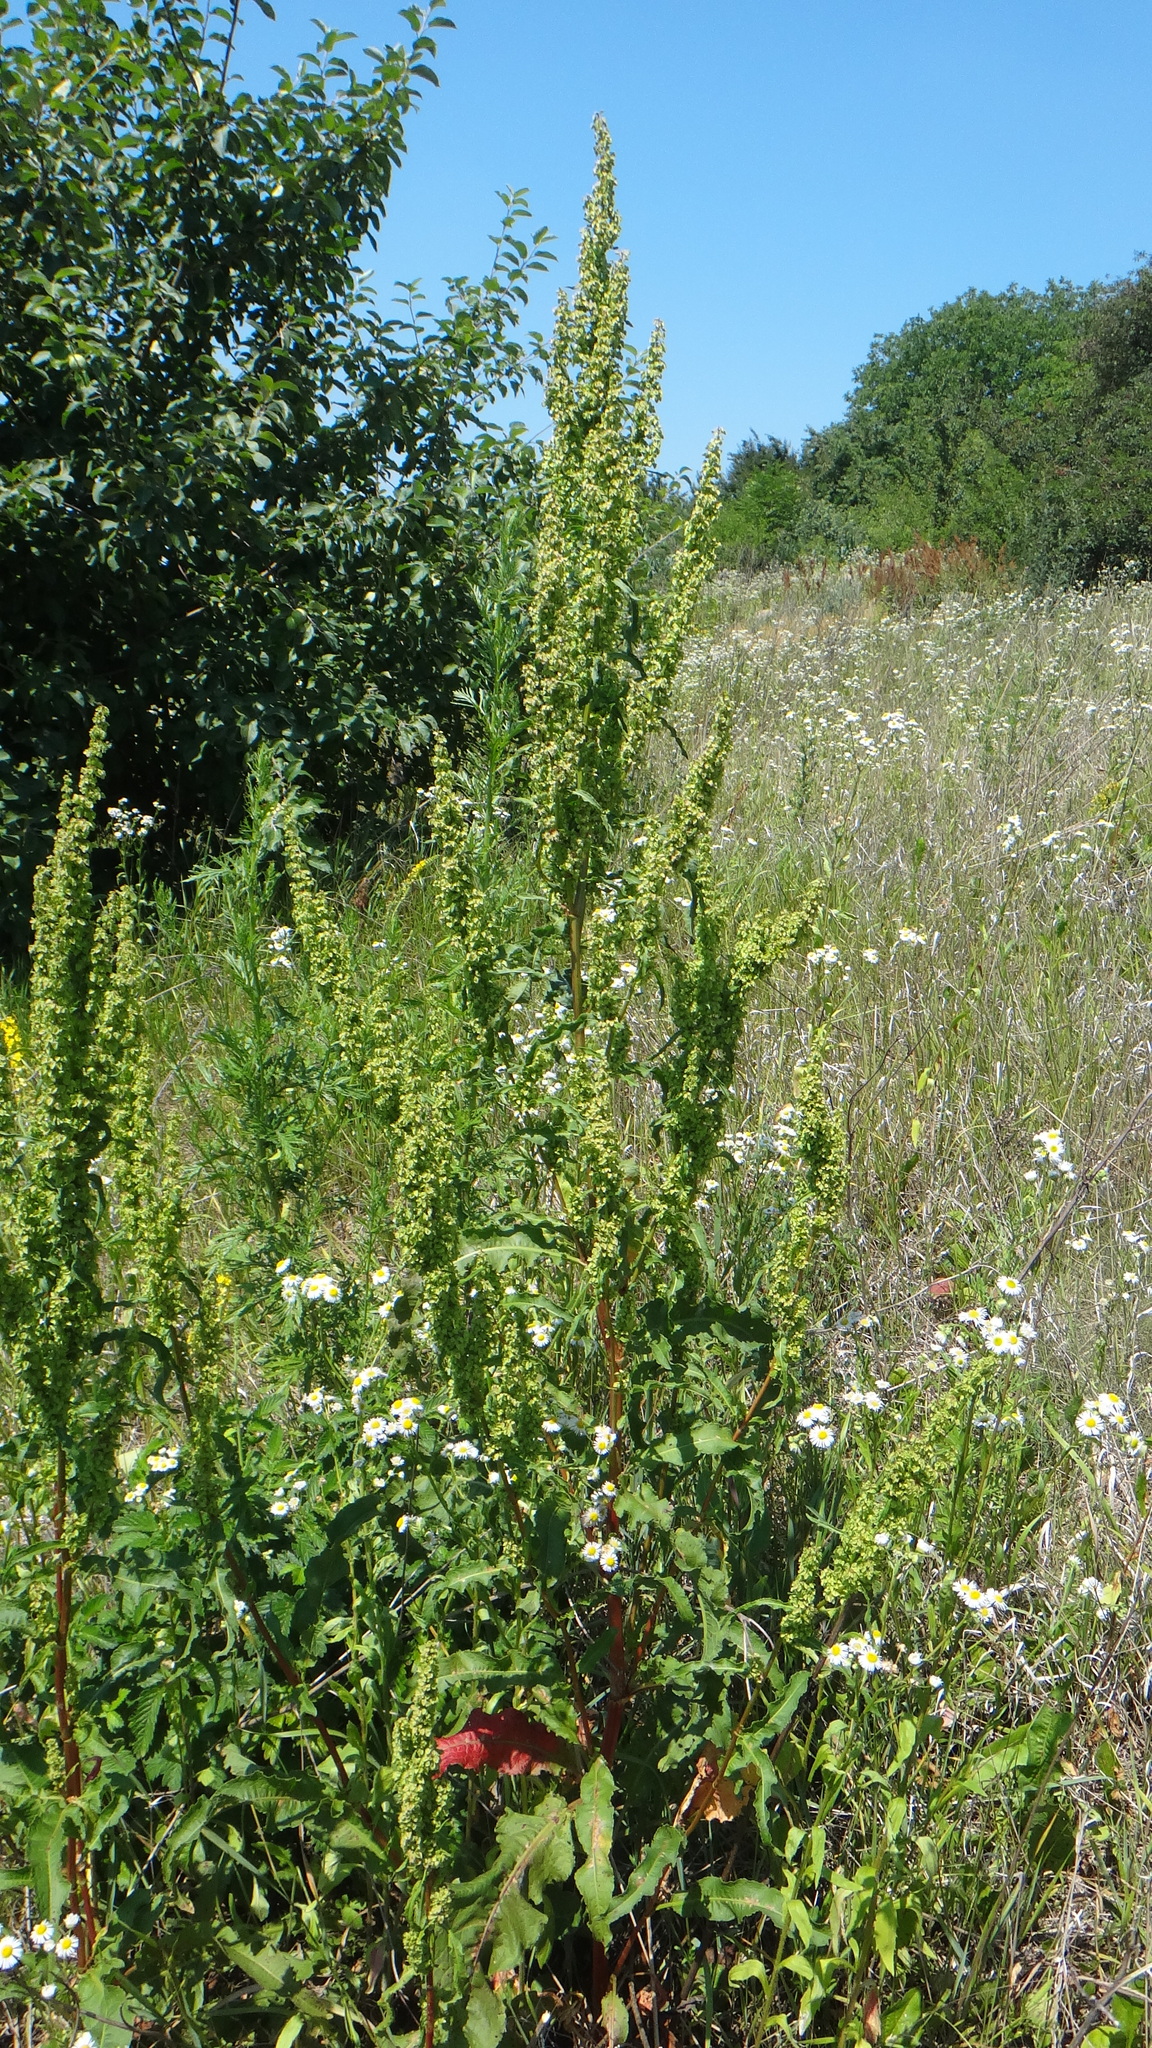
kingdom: Plantae
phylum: Tracheophyta
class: Magnoliopsida
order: Caryophyllales
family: Polygonaceae
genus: Rumex
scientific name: Rumex crispus
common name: Curled dock
